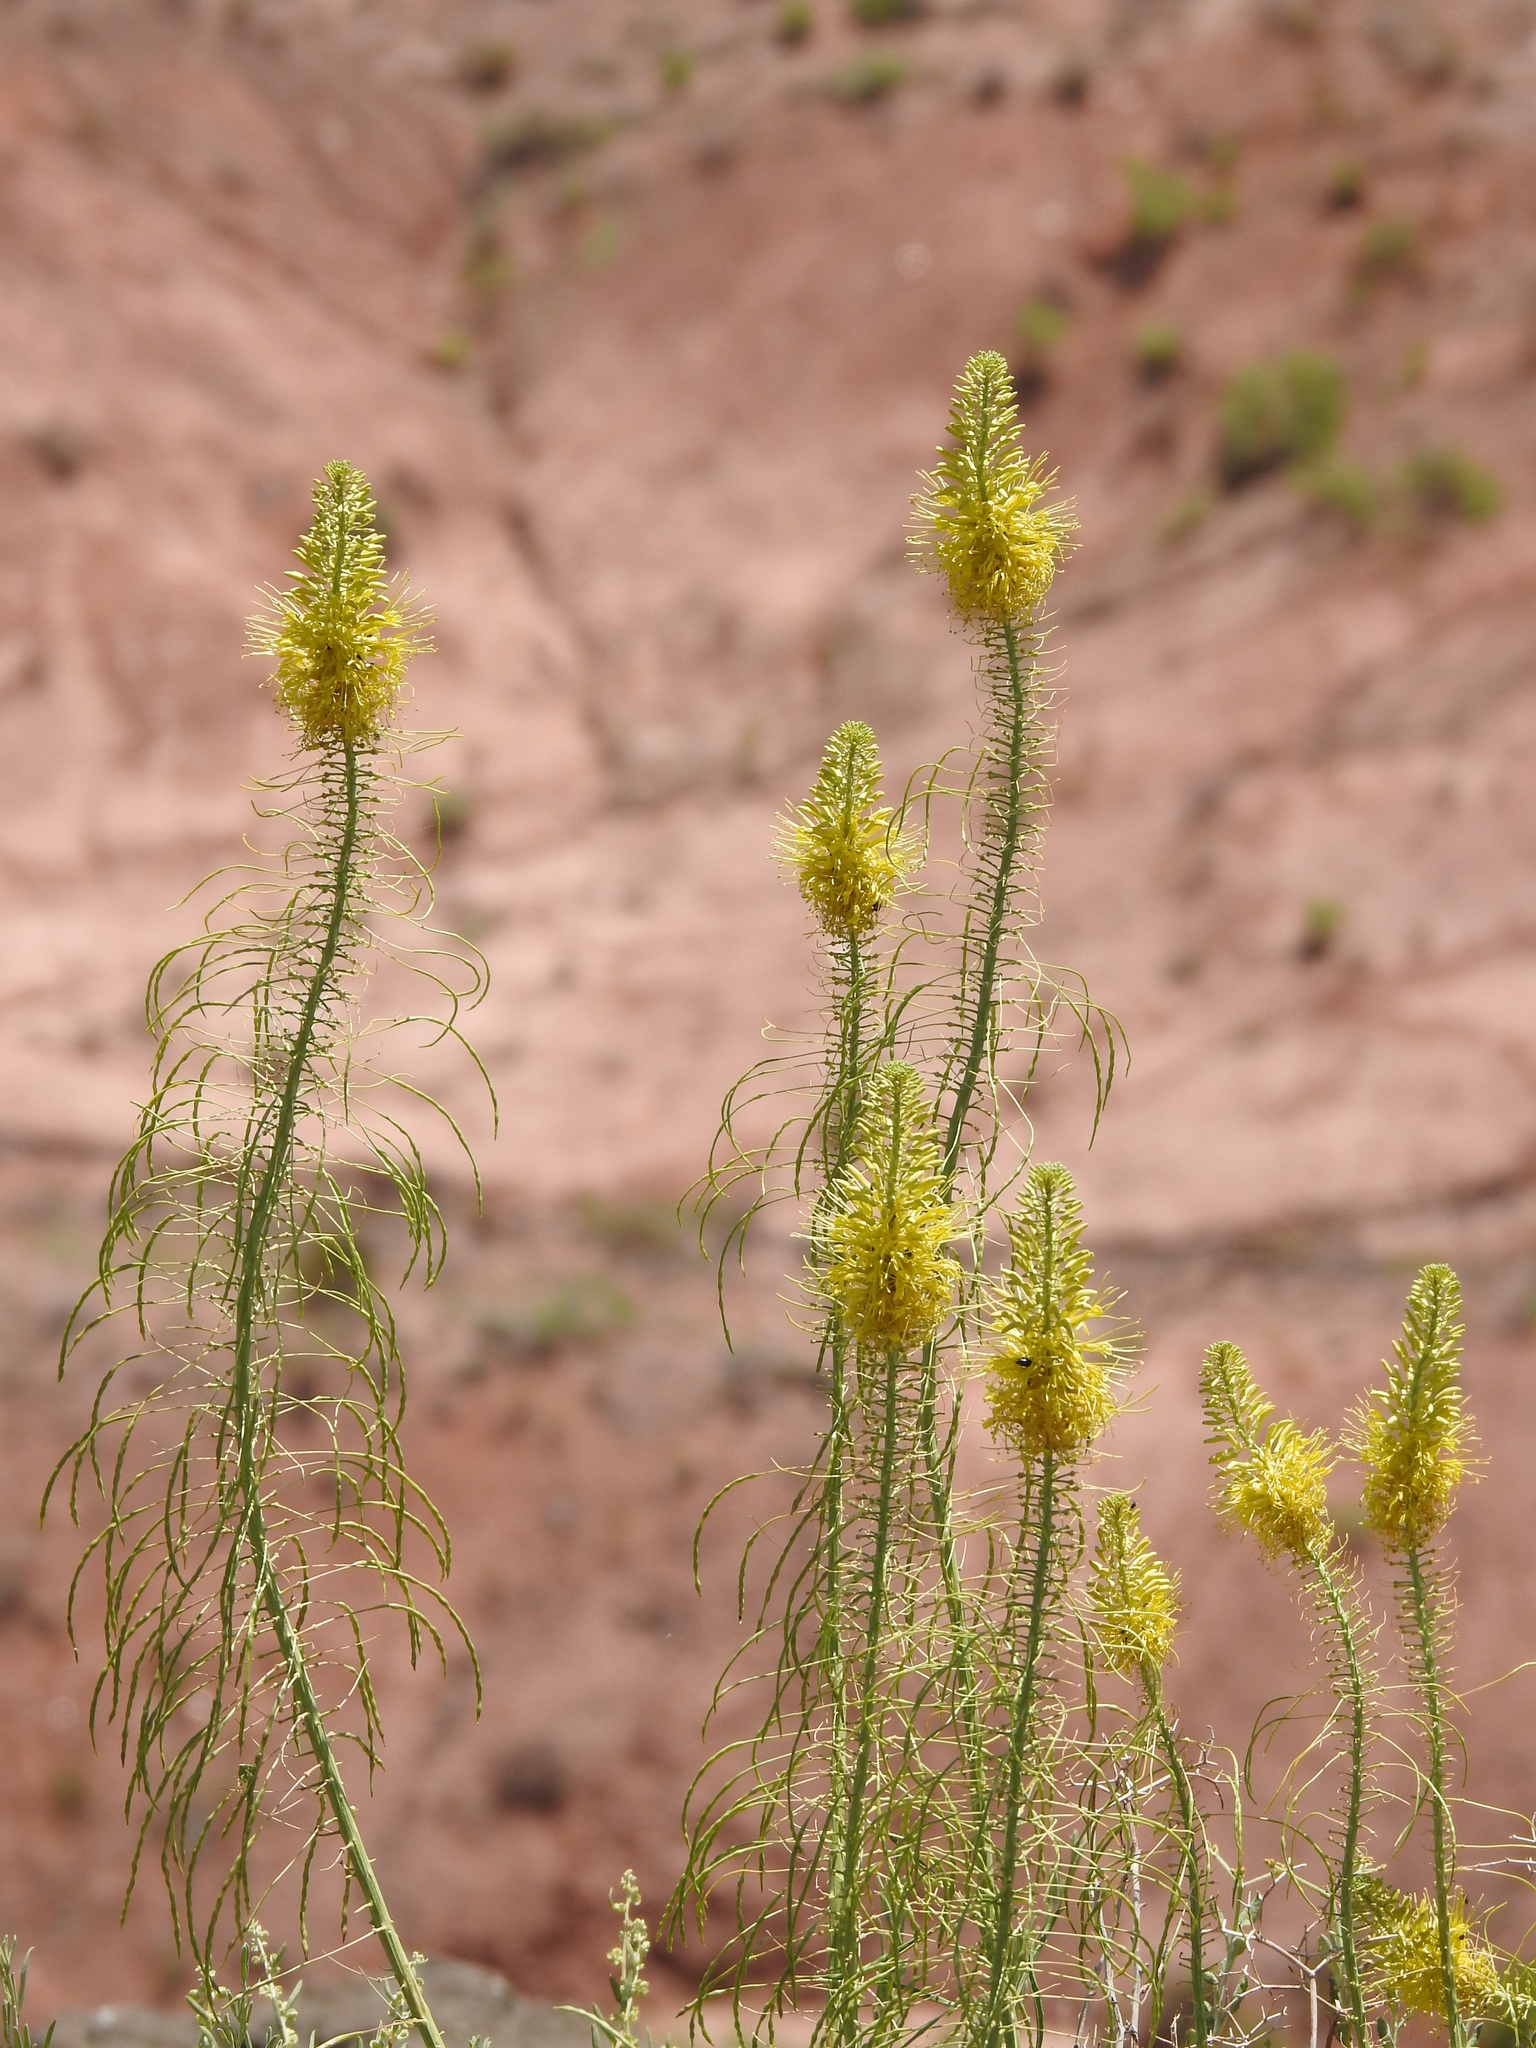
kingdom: Plantae
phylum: Tracheophyta
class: Magnoliopsida
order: Brassicales
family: Brassicaceae
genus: Stanleya
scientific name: Stanleya pinnata
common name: Prince's-plume
